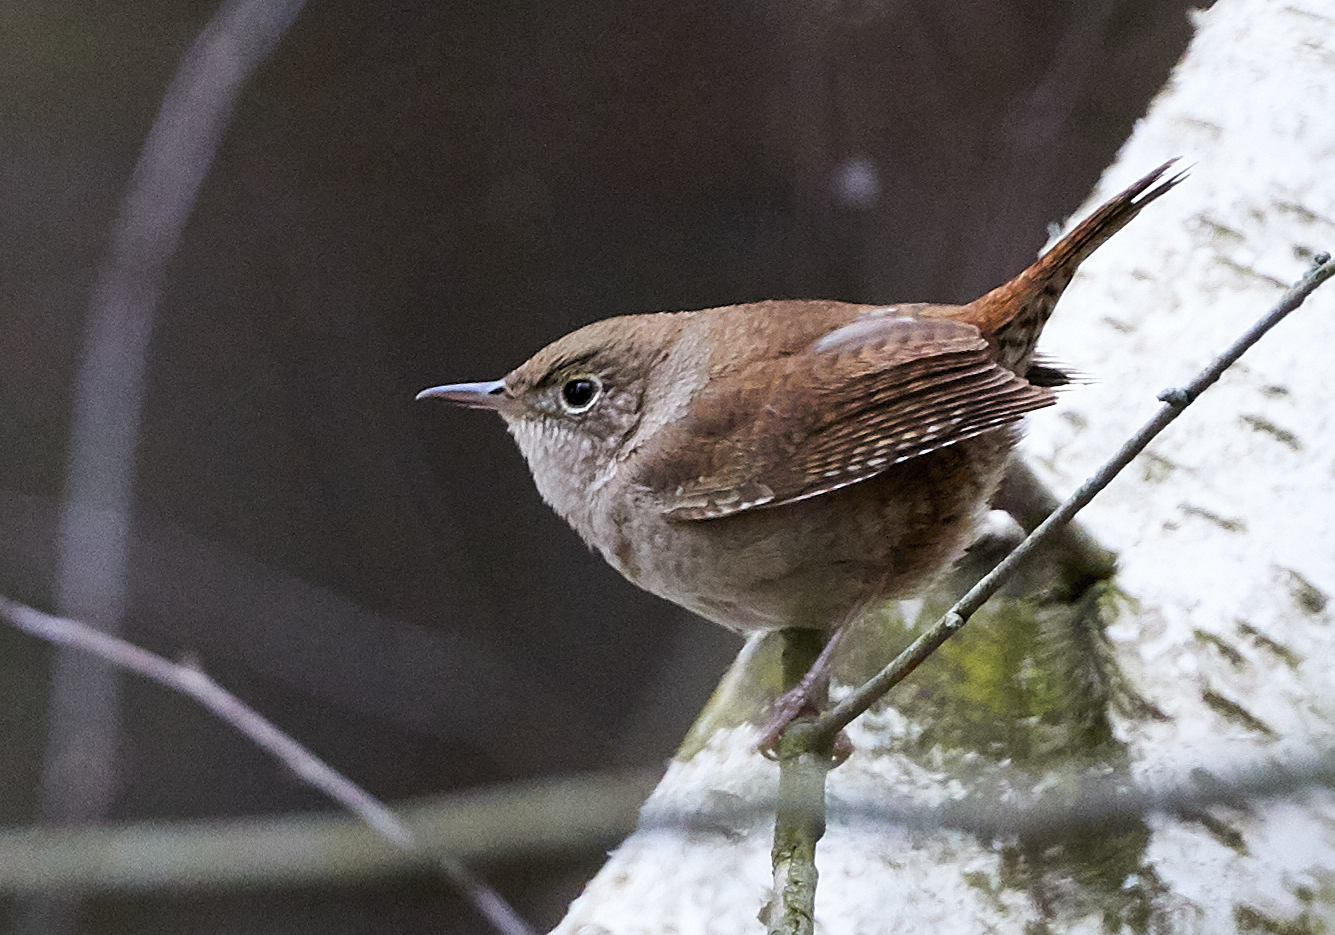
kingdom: Animalia
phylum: Chordata
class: Aves
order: Passeriformes
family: Troglodytidae
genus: Troglodytes
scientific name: Troglodytes aedon
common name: House wren
